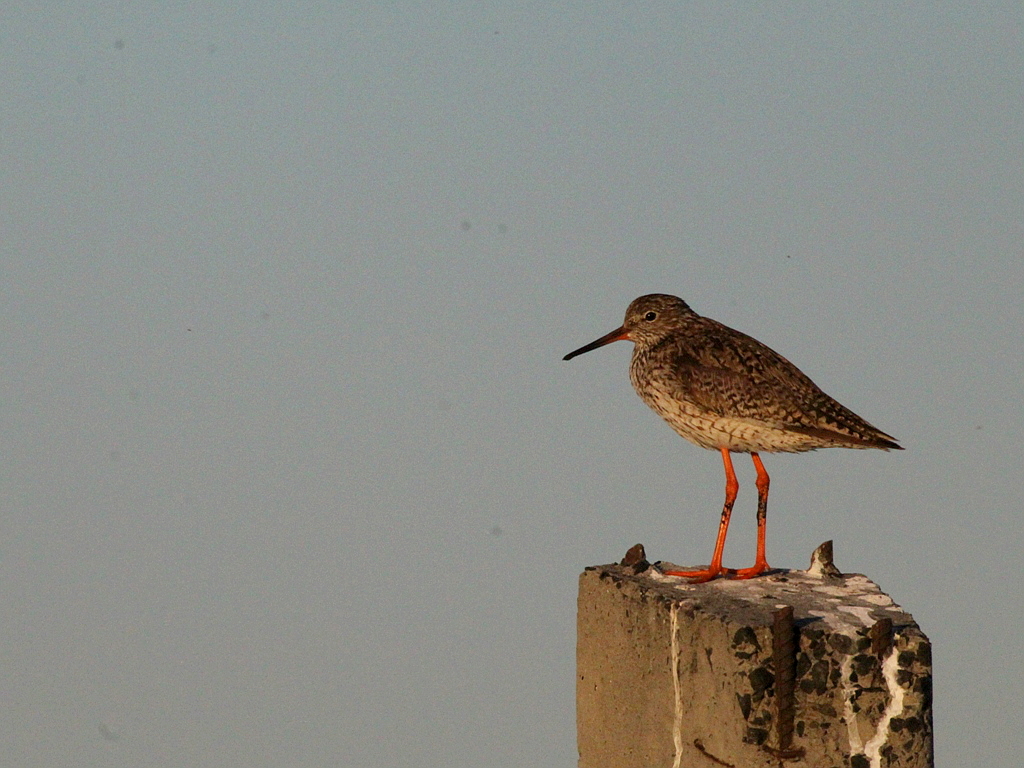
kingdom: Animalia
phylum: Chordata
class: Aves
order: Charadriiformes
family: Scolopacidae
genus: Tringa
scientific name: Tringa totanus
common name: Common redshank
